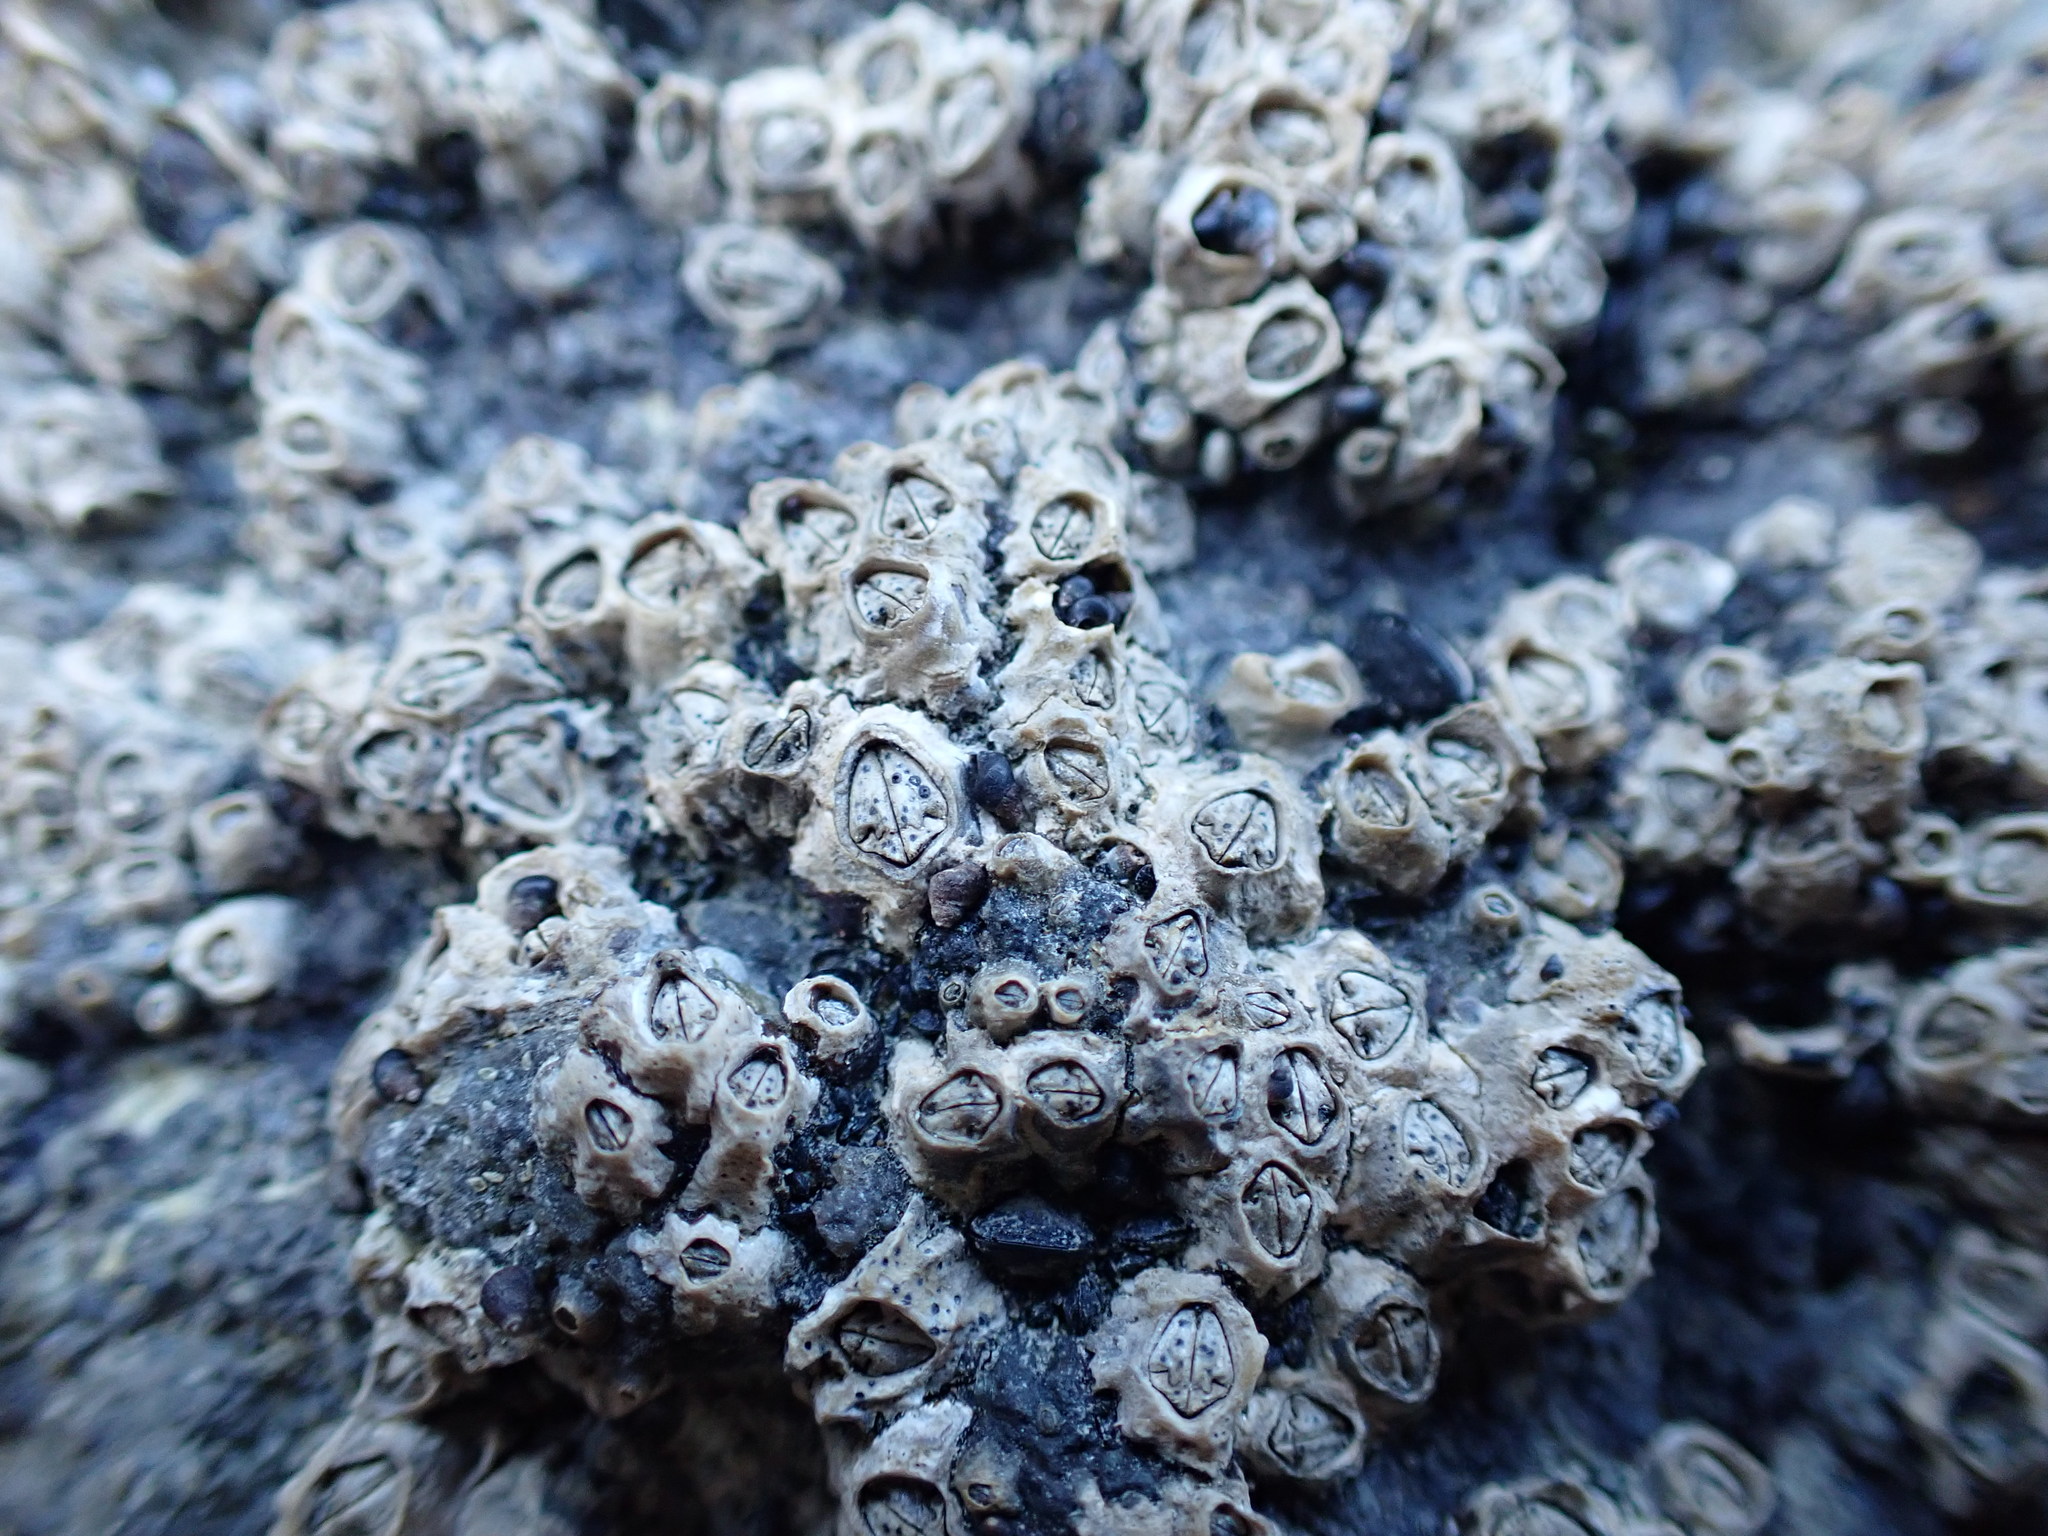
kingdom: Animalia
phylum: Arthropoda
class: Maxillopoda
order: Sessilia
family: Chthamalidae
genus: Chamaesipho
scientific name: Chamaesipho columna
